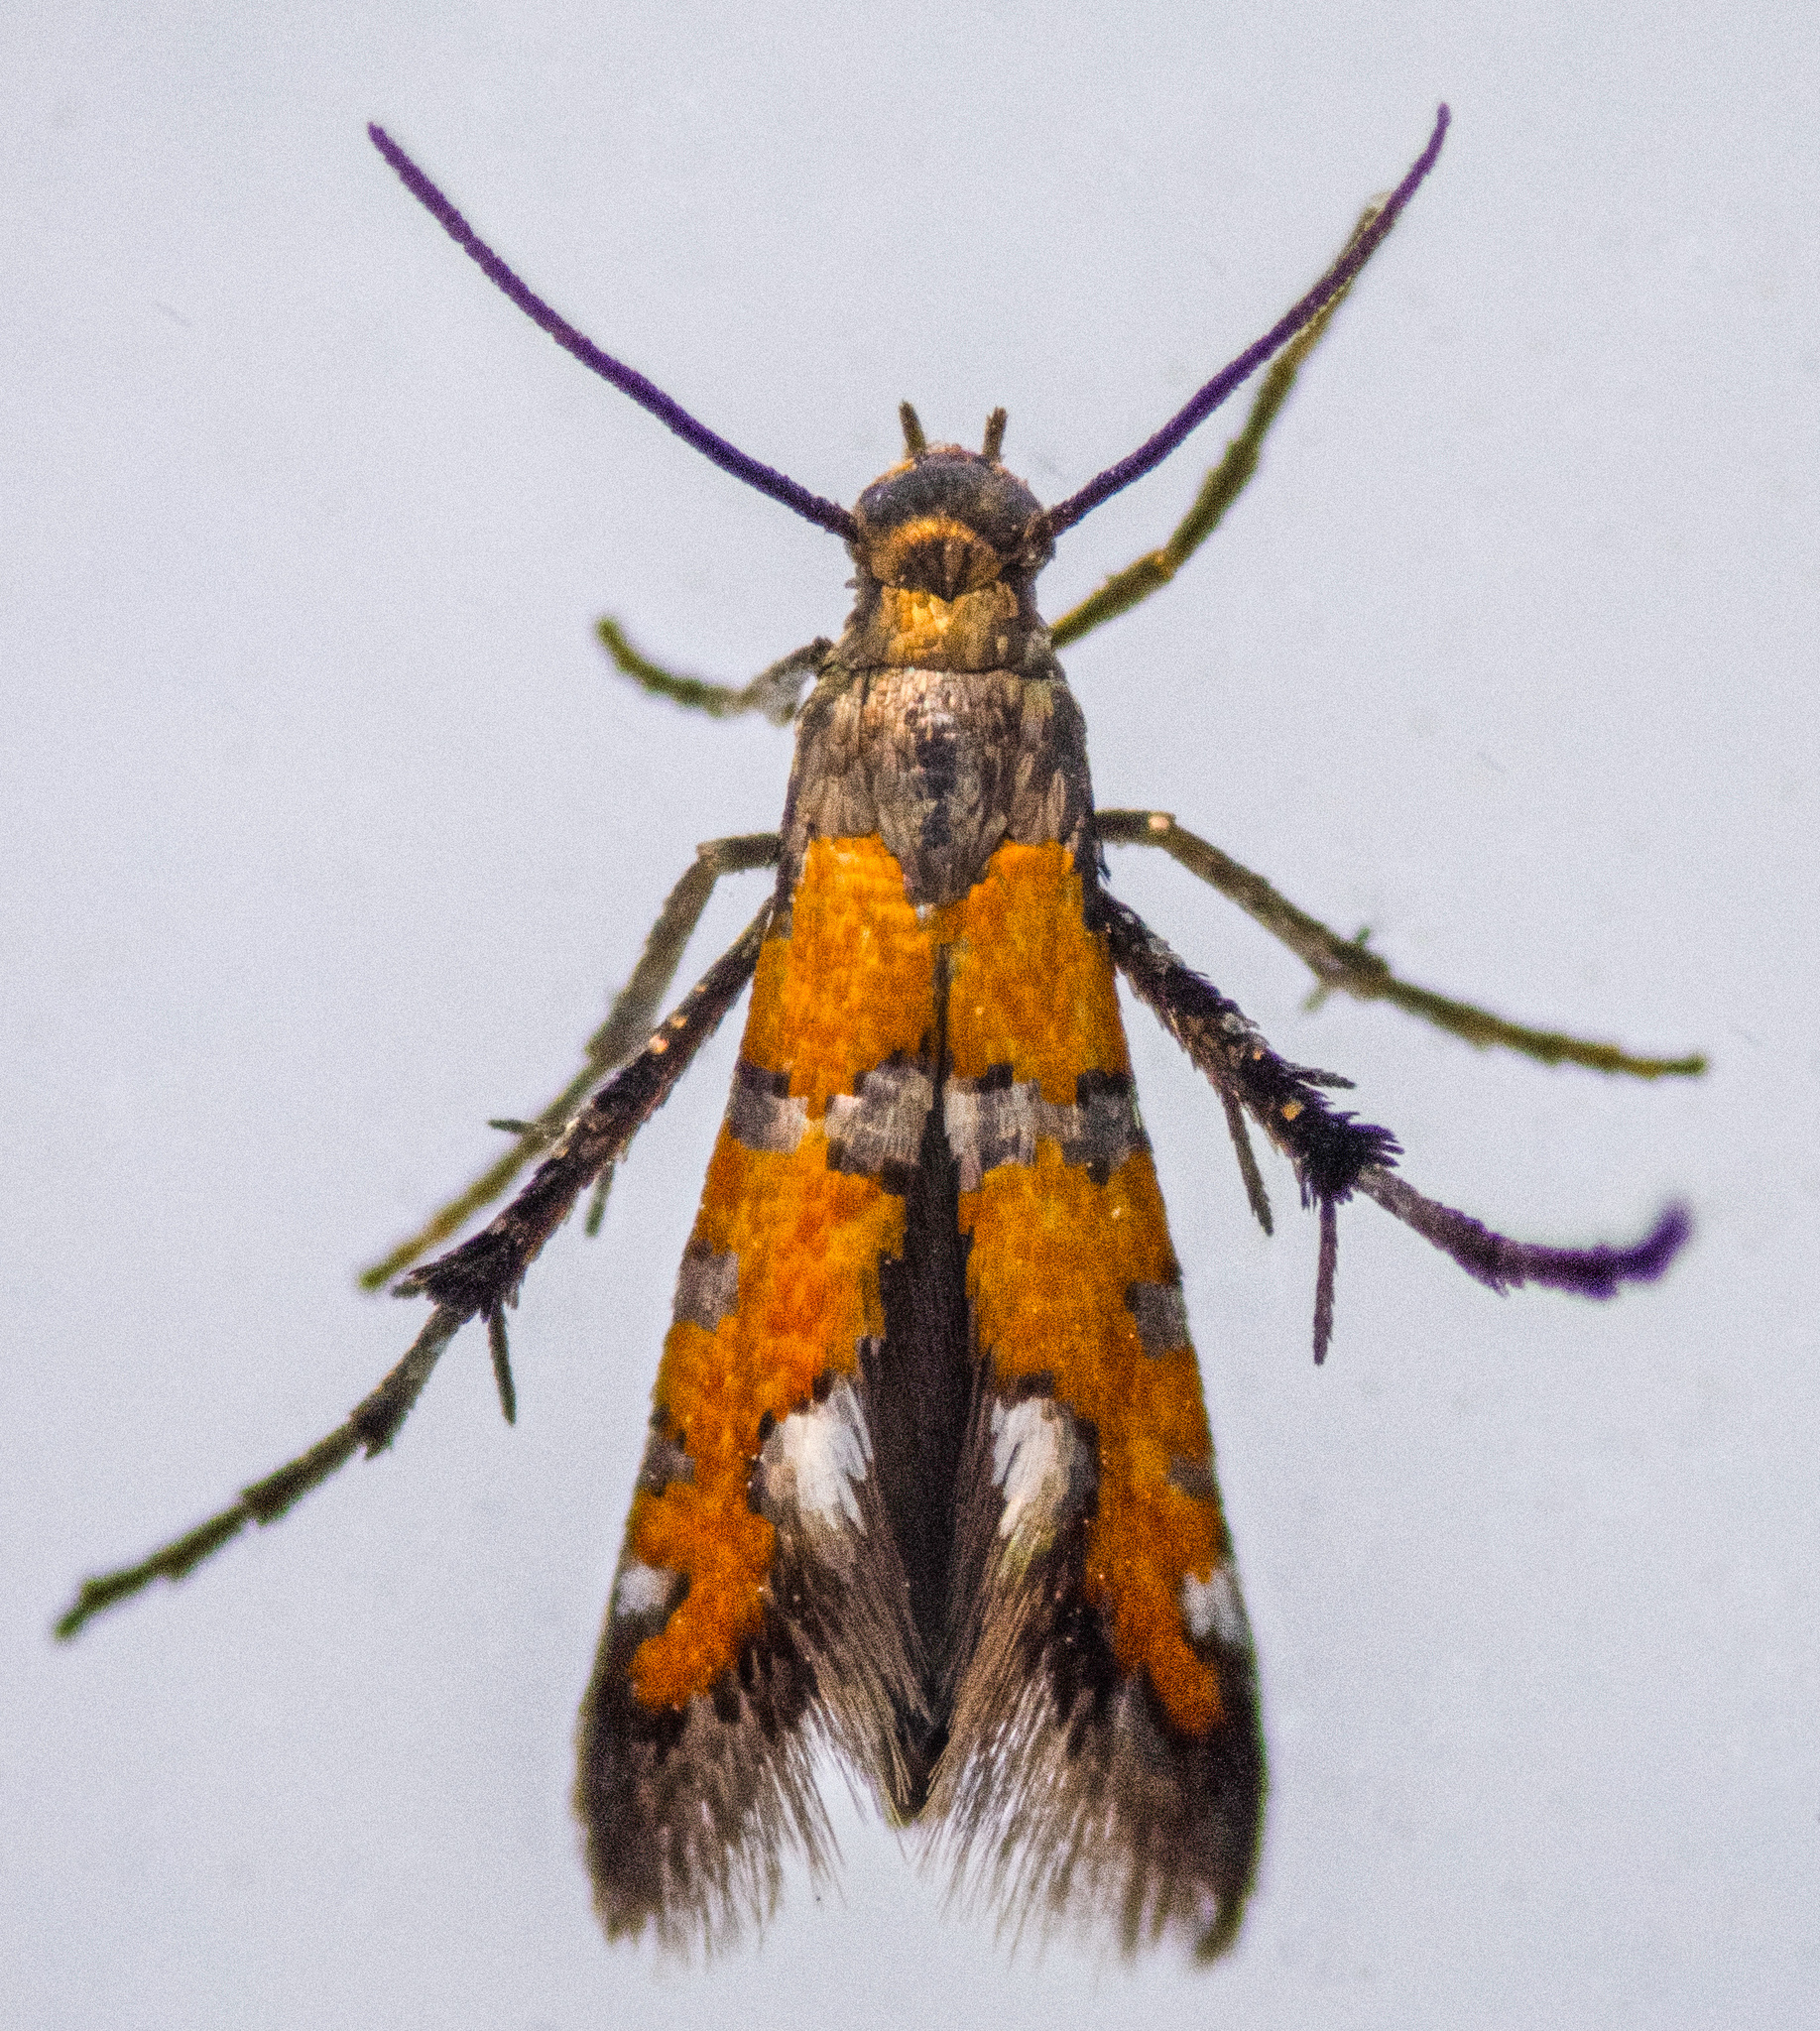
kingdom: Animalia
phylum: Arthropoda
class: Insecta
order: Lepidoptera
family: Heliodinidae
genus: Heliodines
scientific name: Heliodines Aetole extraneella
